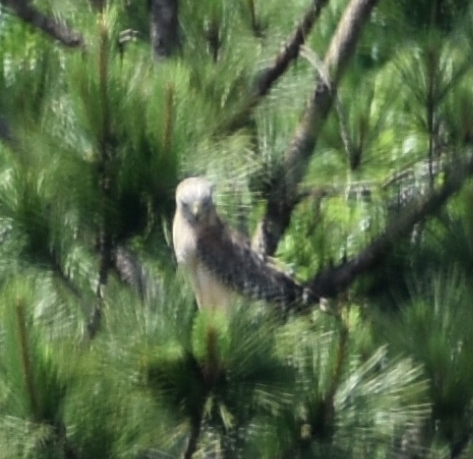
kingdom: Animalia
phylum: Chordata
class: Aves
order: Accipitriformes
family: Accipitridae
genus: Buteo
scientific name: Buteo lineatus
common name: Red-shouldered hawk
